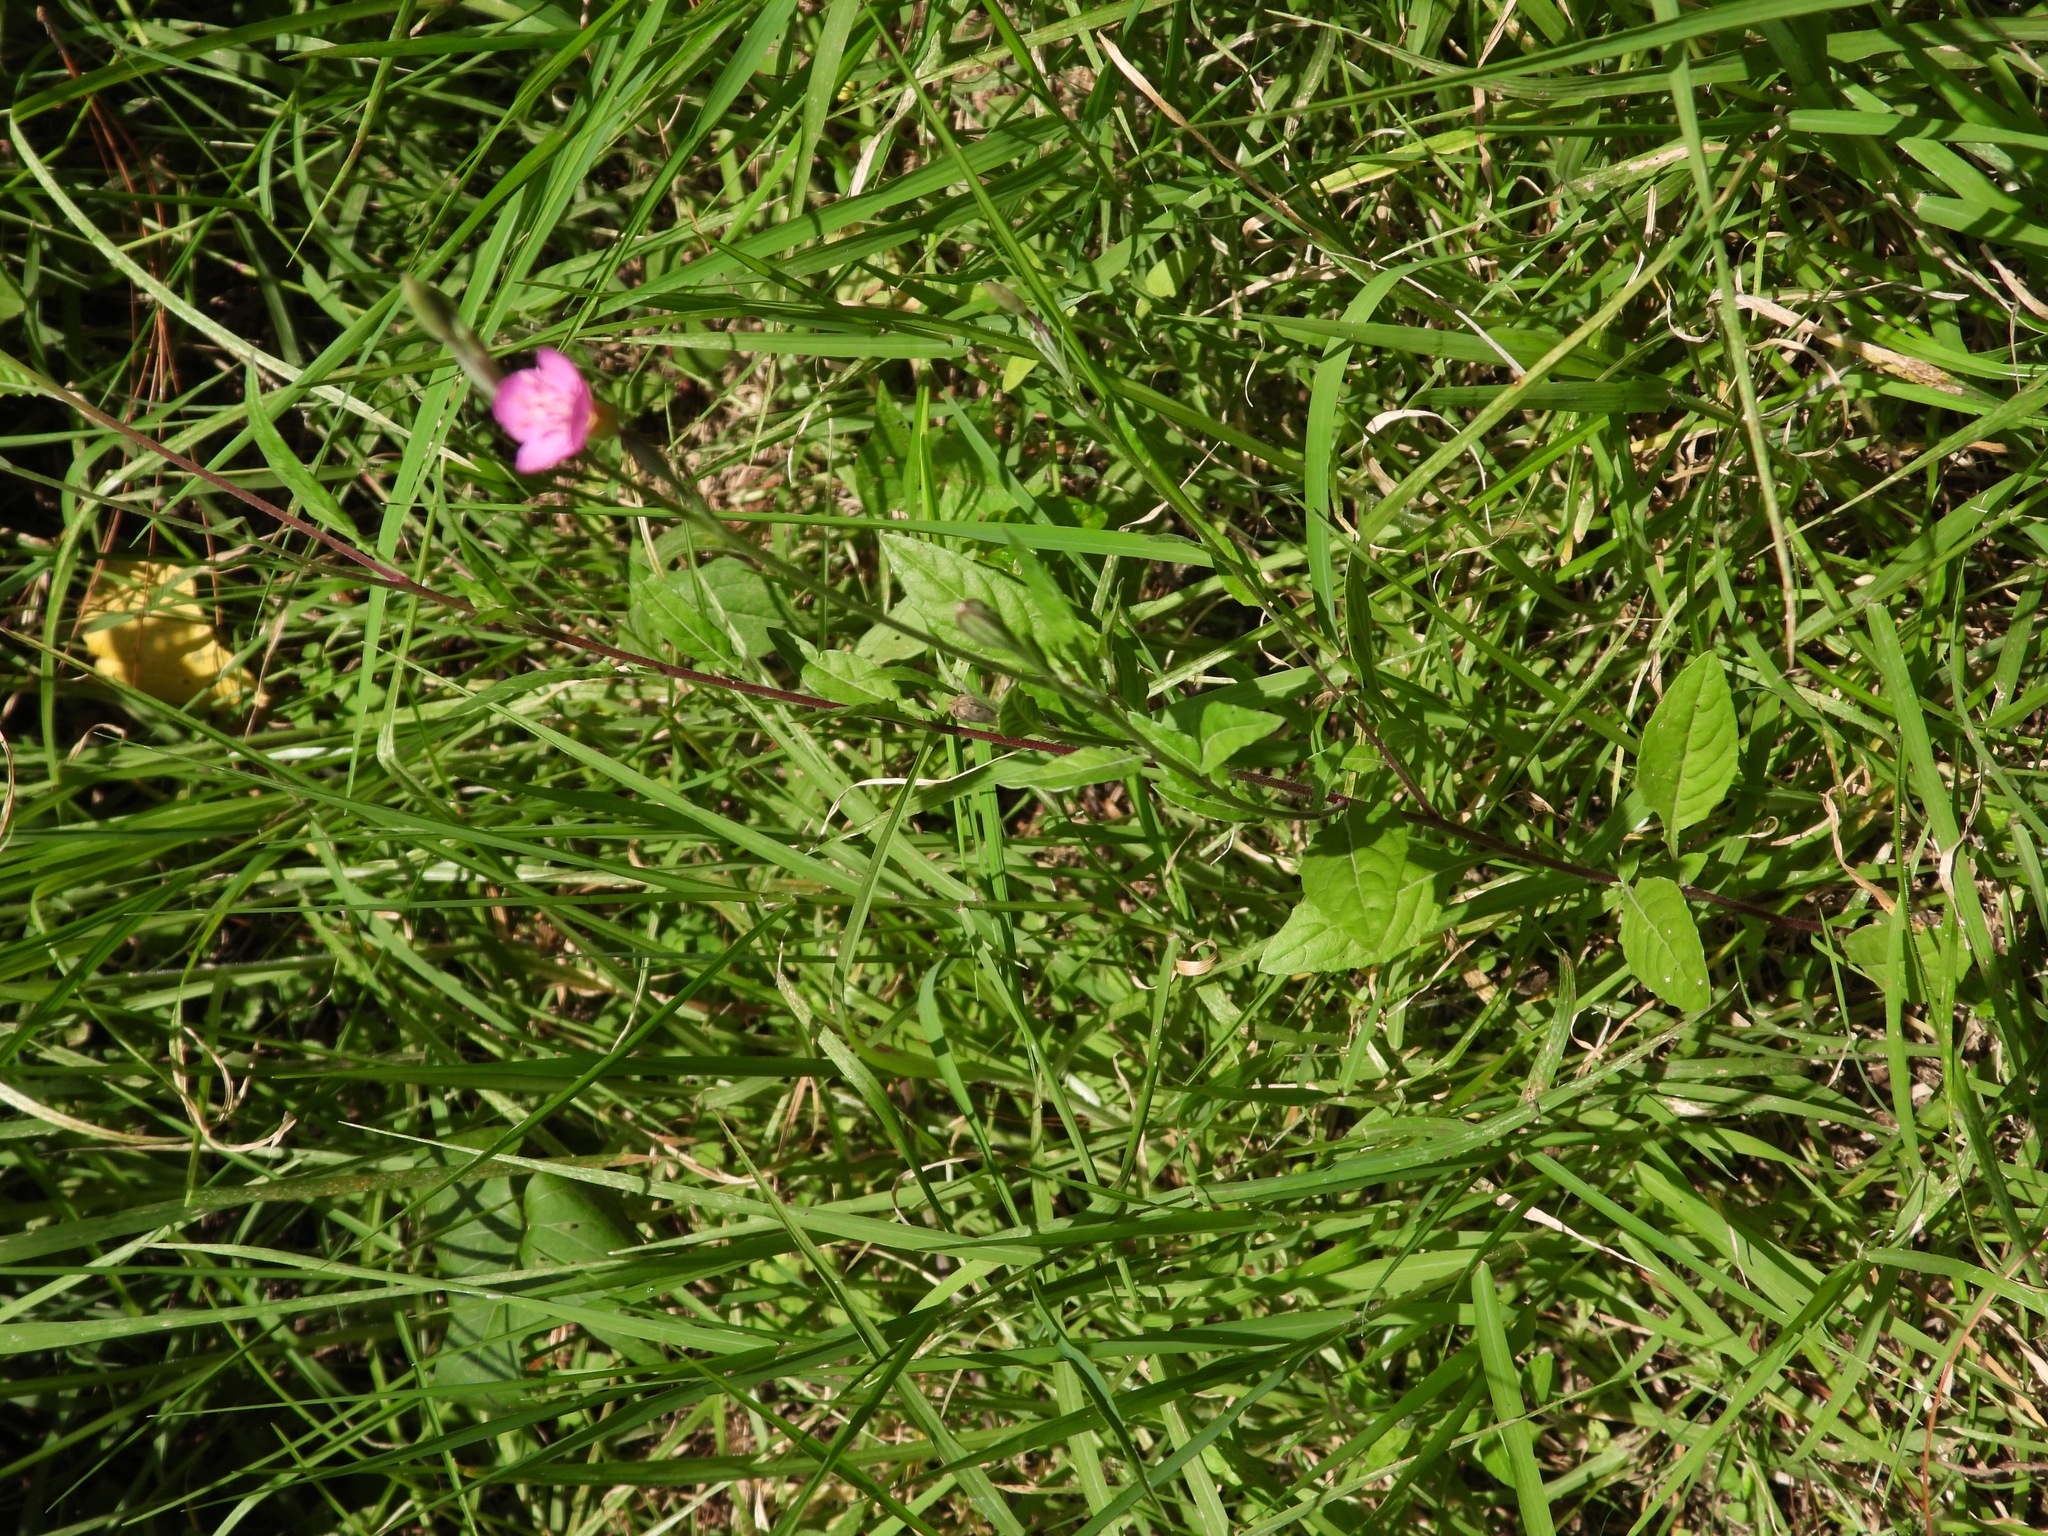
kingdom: Plantae
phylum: Tracheophyta
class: Magnoliopsida
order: Myrtales
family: Onagraceae
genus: Oenothera
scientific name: Oenothera rosea
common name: Rosy evening-primrose
